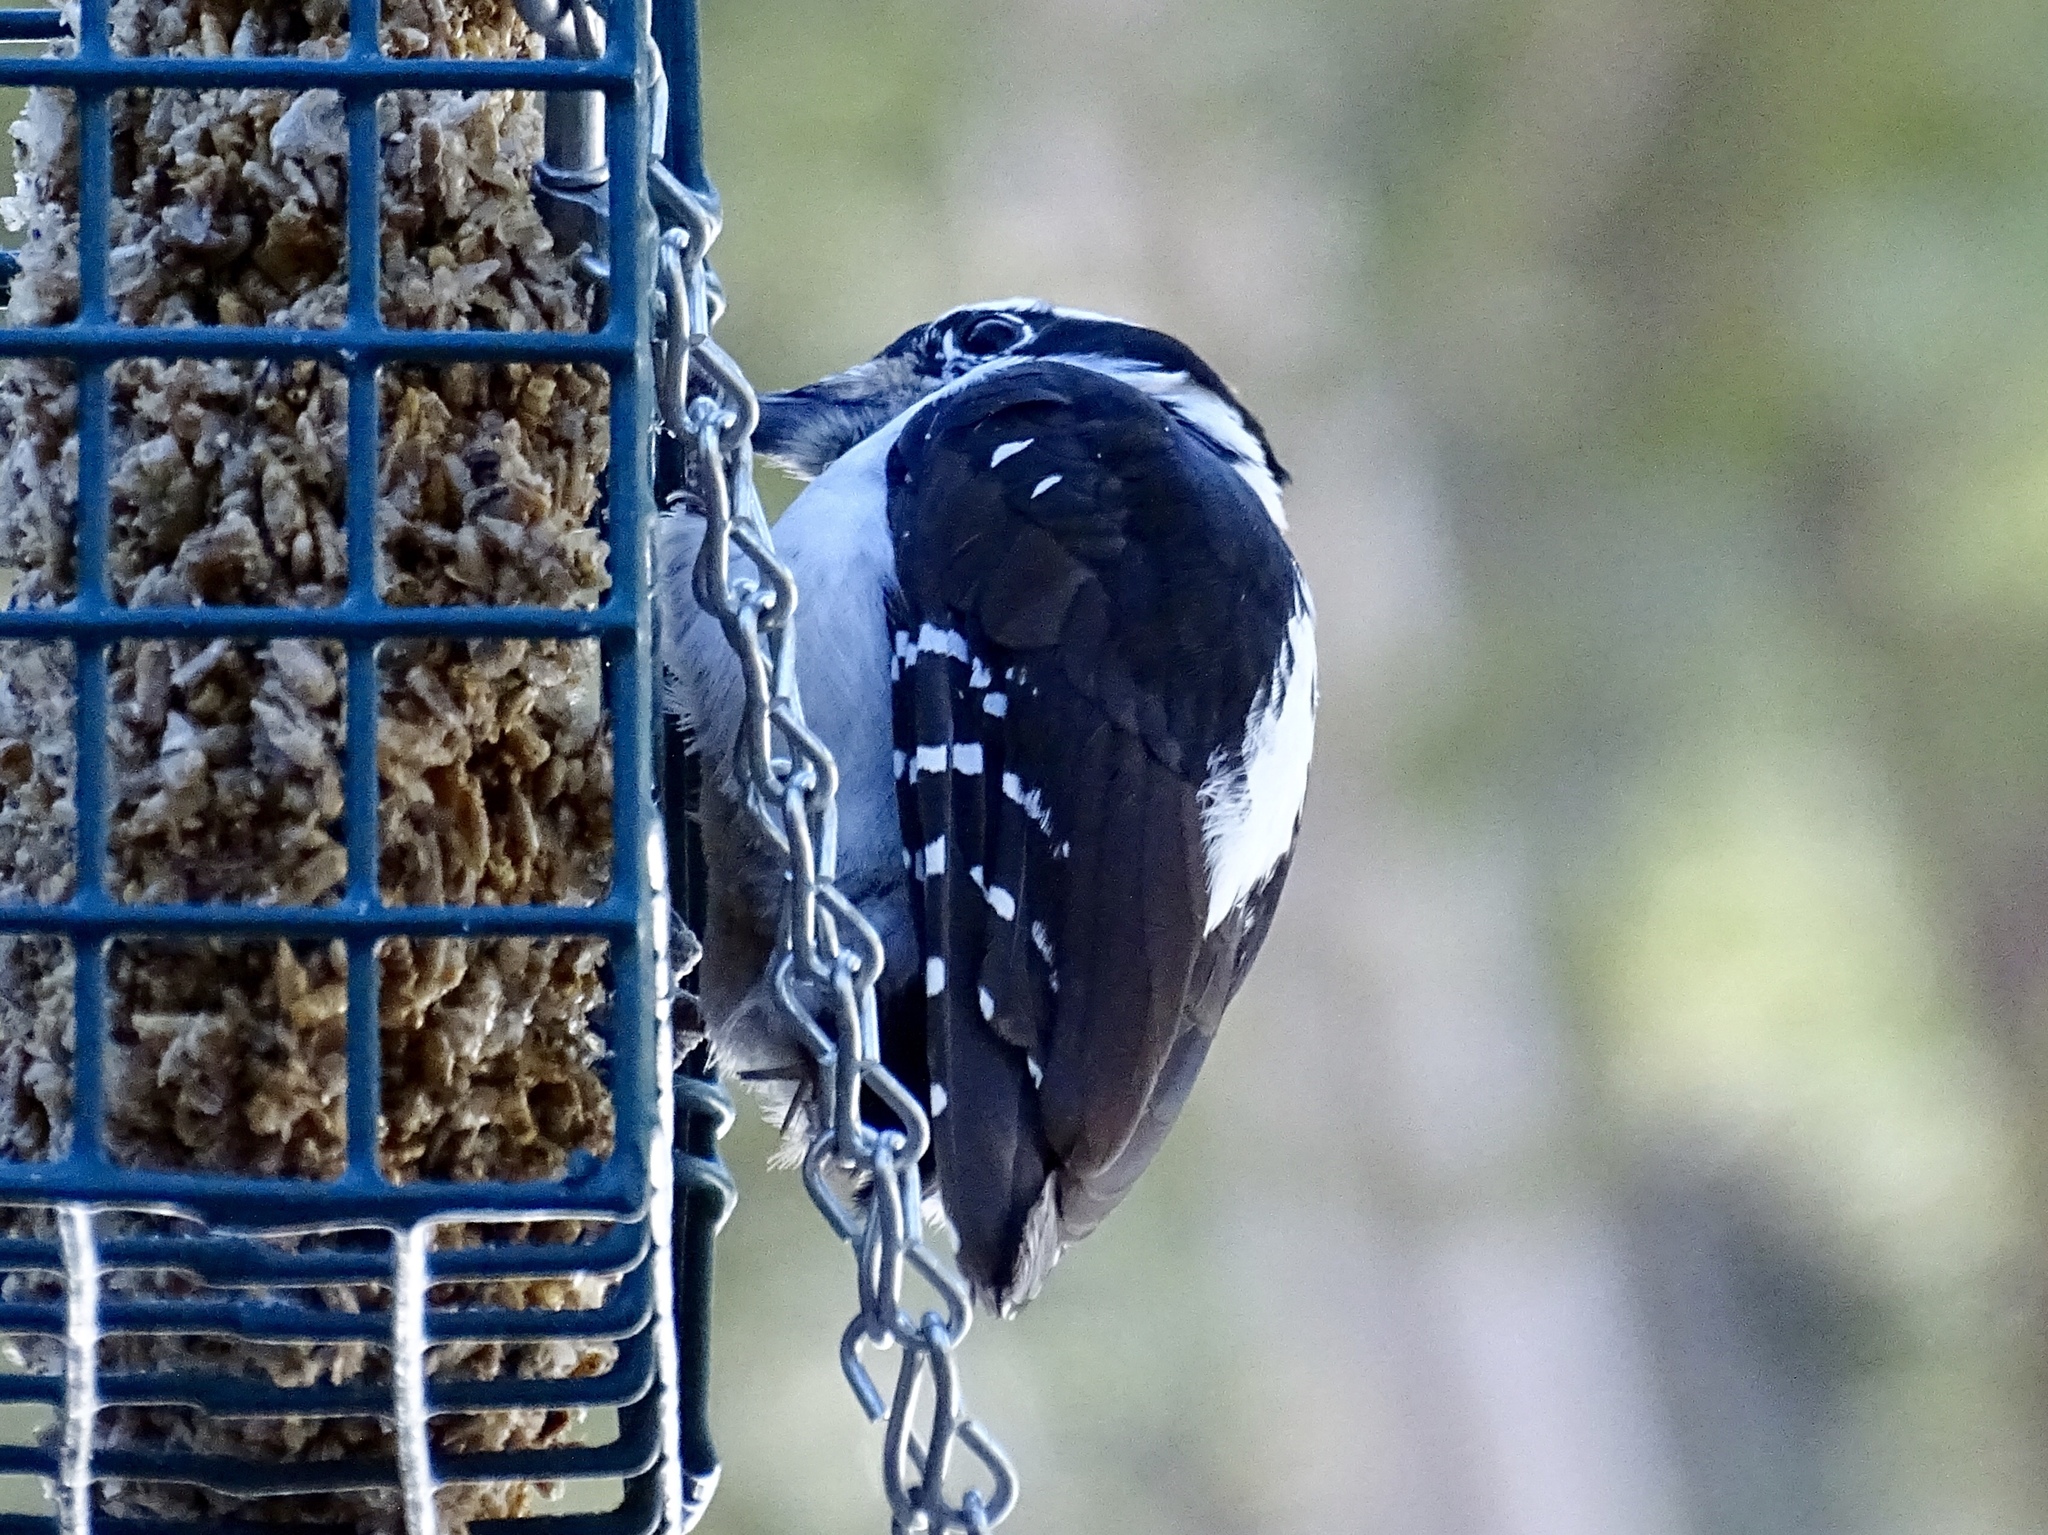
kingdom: Animalia
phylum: Chordata
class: Aves
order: Piciformes
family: Picidae
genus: Leuconotopicus
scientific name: Leuconotopicus villosus
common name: Hairy woodpecker
